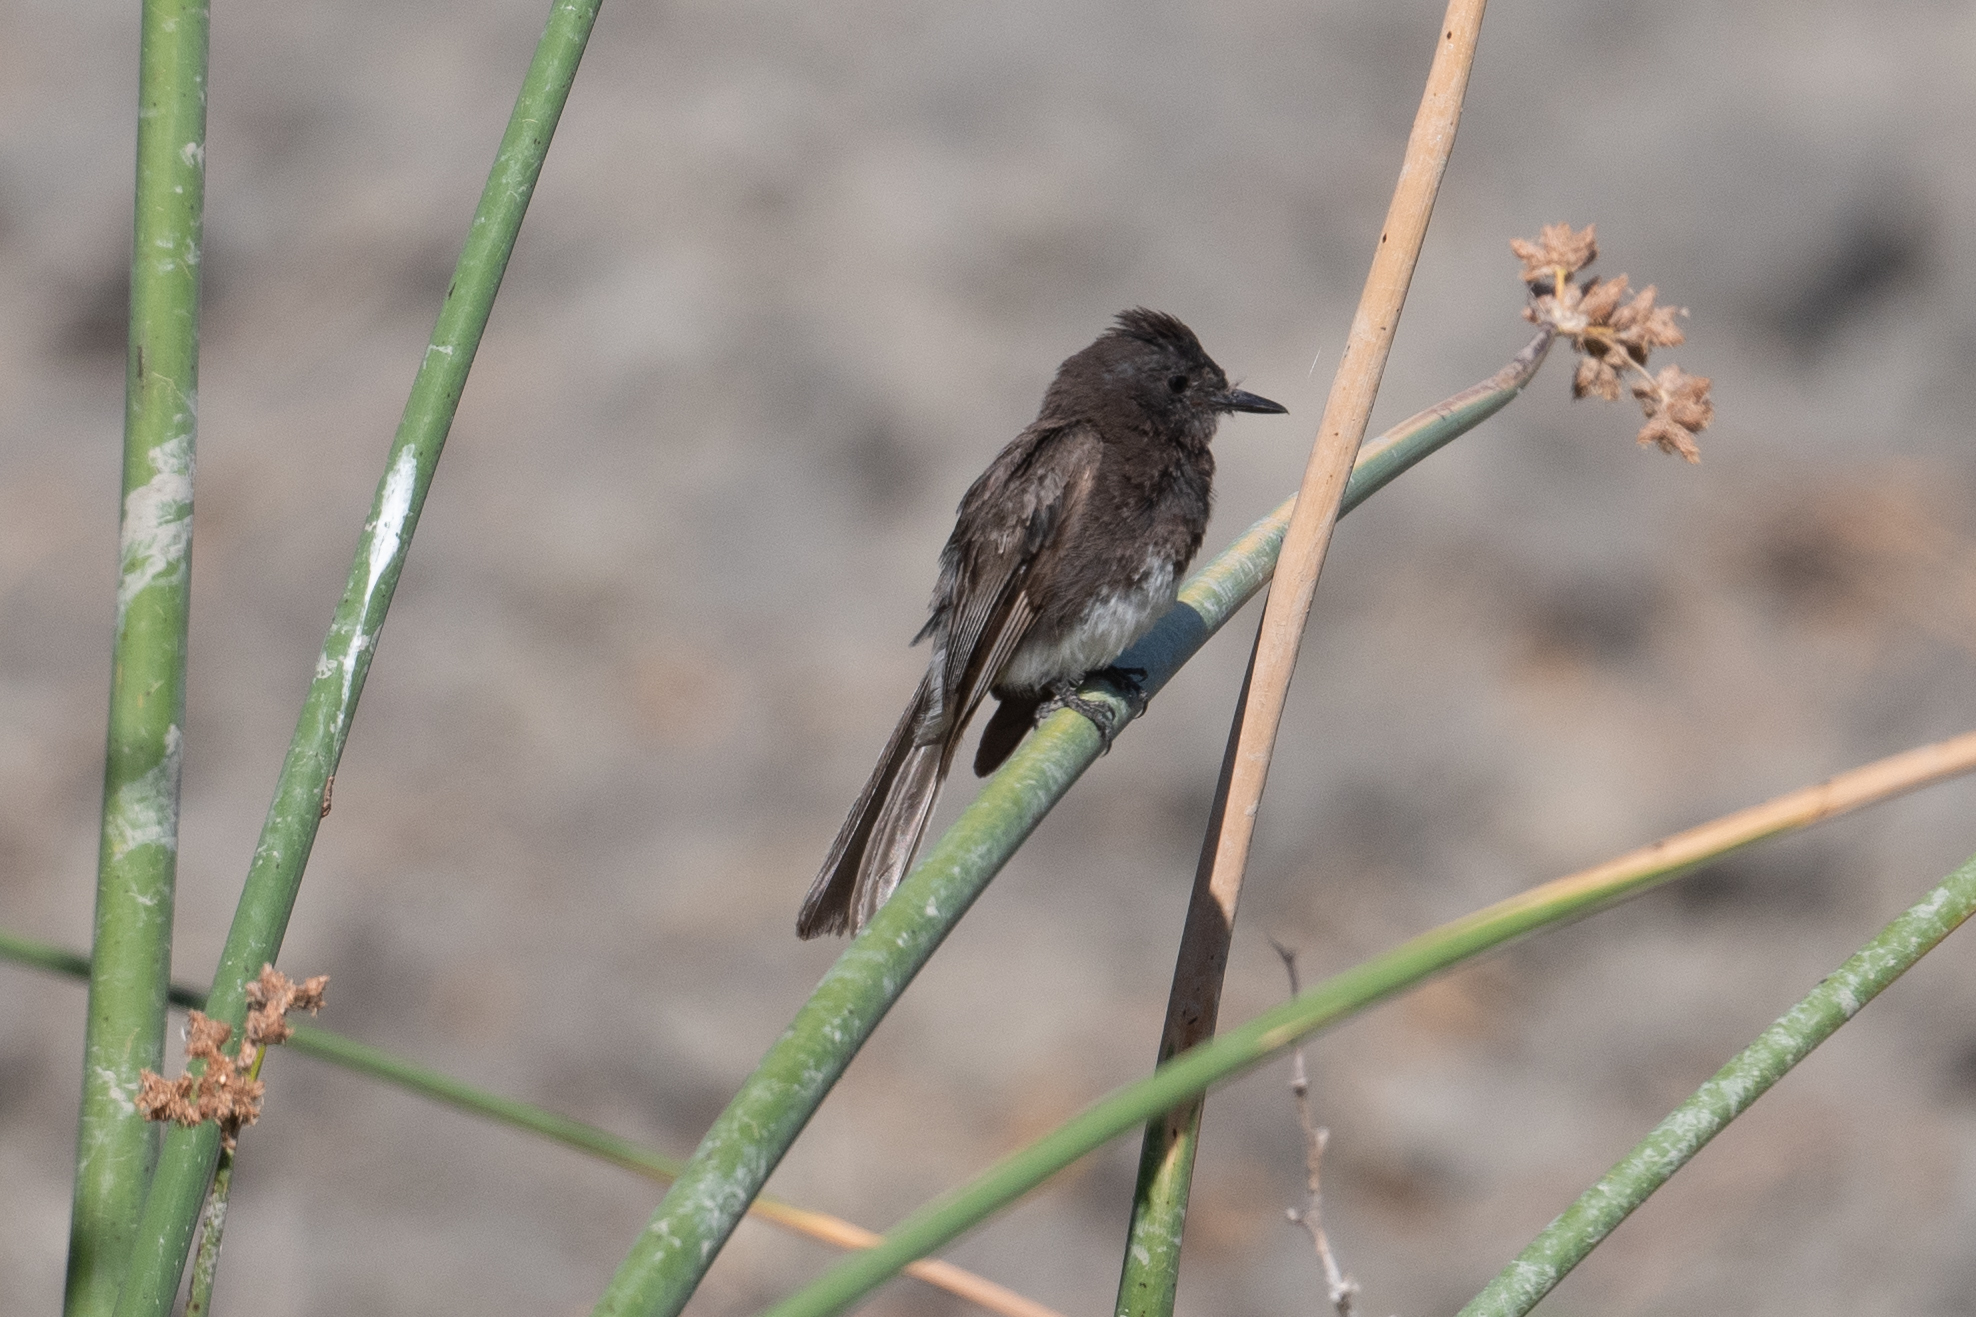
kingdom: Animalia
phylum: Chordata
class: Aves
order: Passeriformes
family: Tyrannidae
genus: Sayornis
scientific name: Sayornis nigricans
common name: Black phoebe
